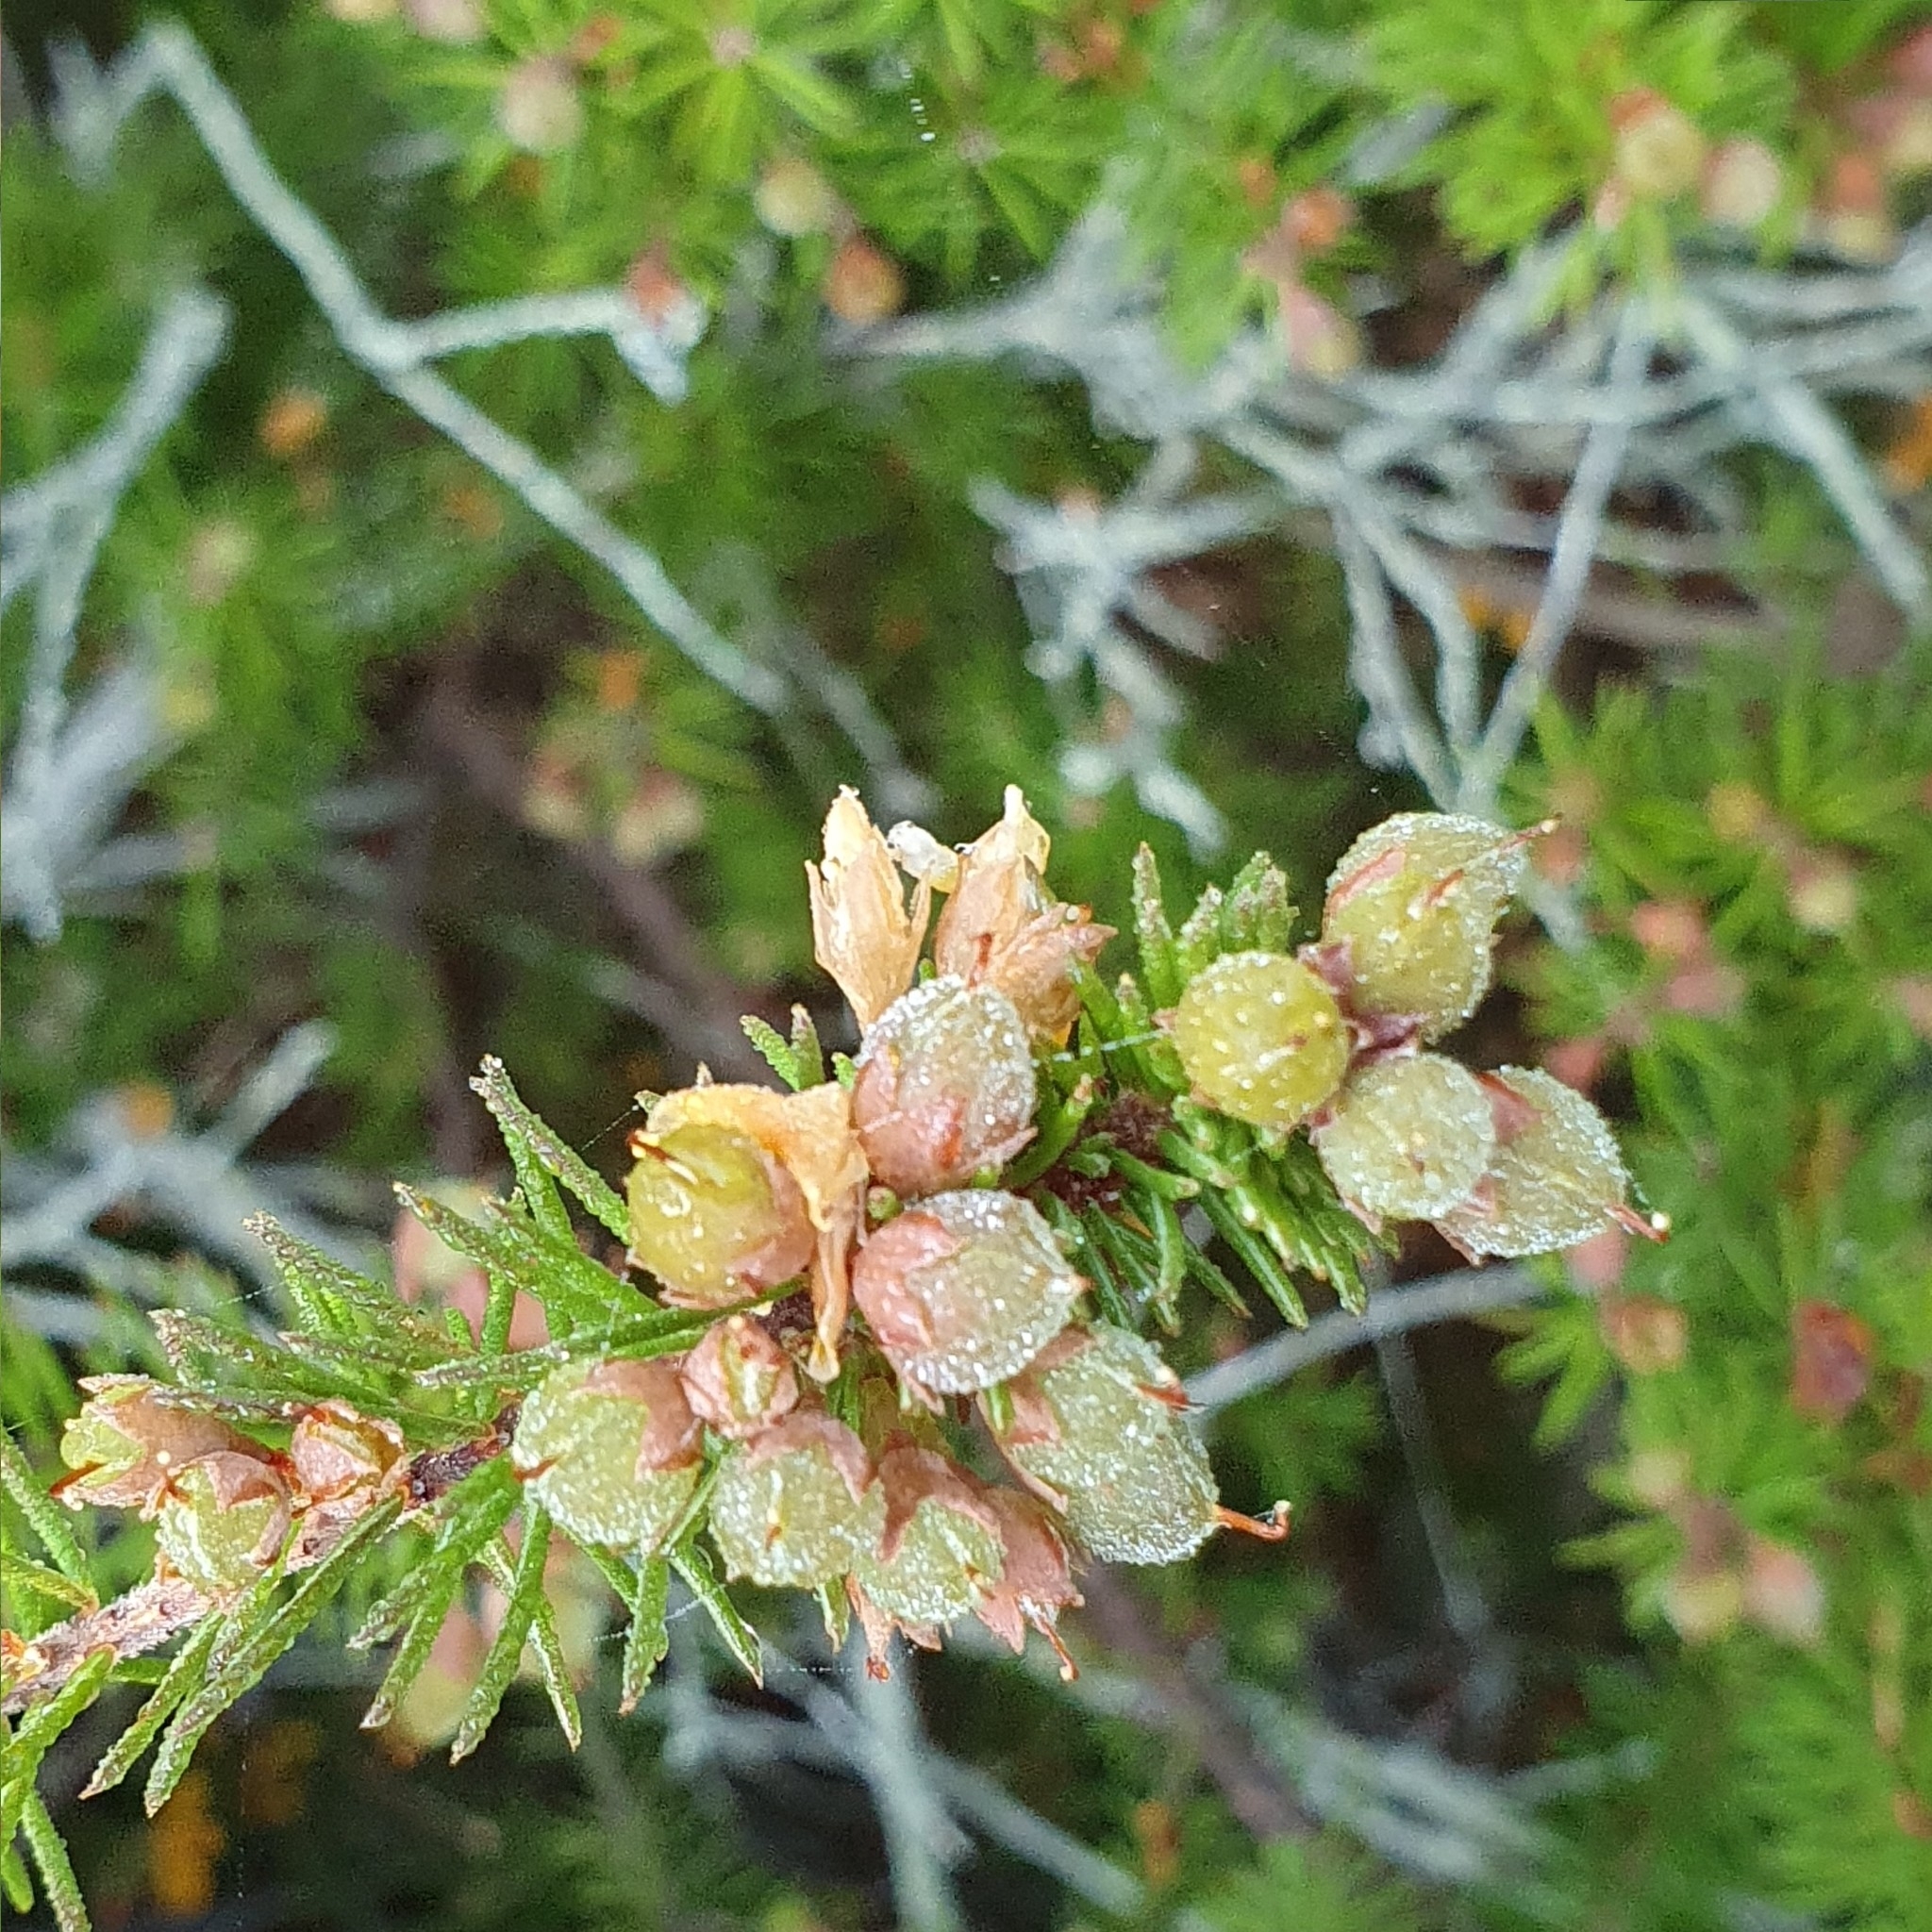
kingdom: Plantae
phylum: Tracheophyta
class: Magnoliopsida
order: Fabales
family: Fabaceae
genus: Dillwynia
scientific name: Dillwynia retorta
